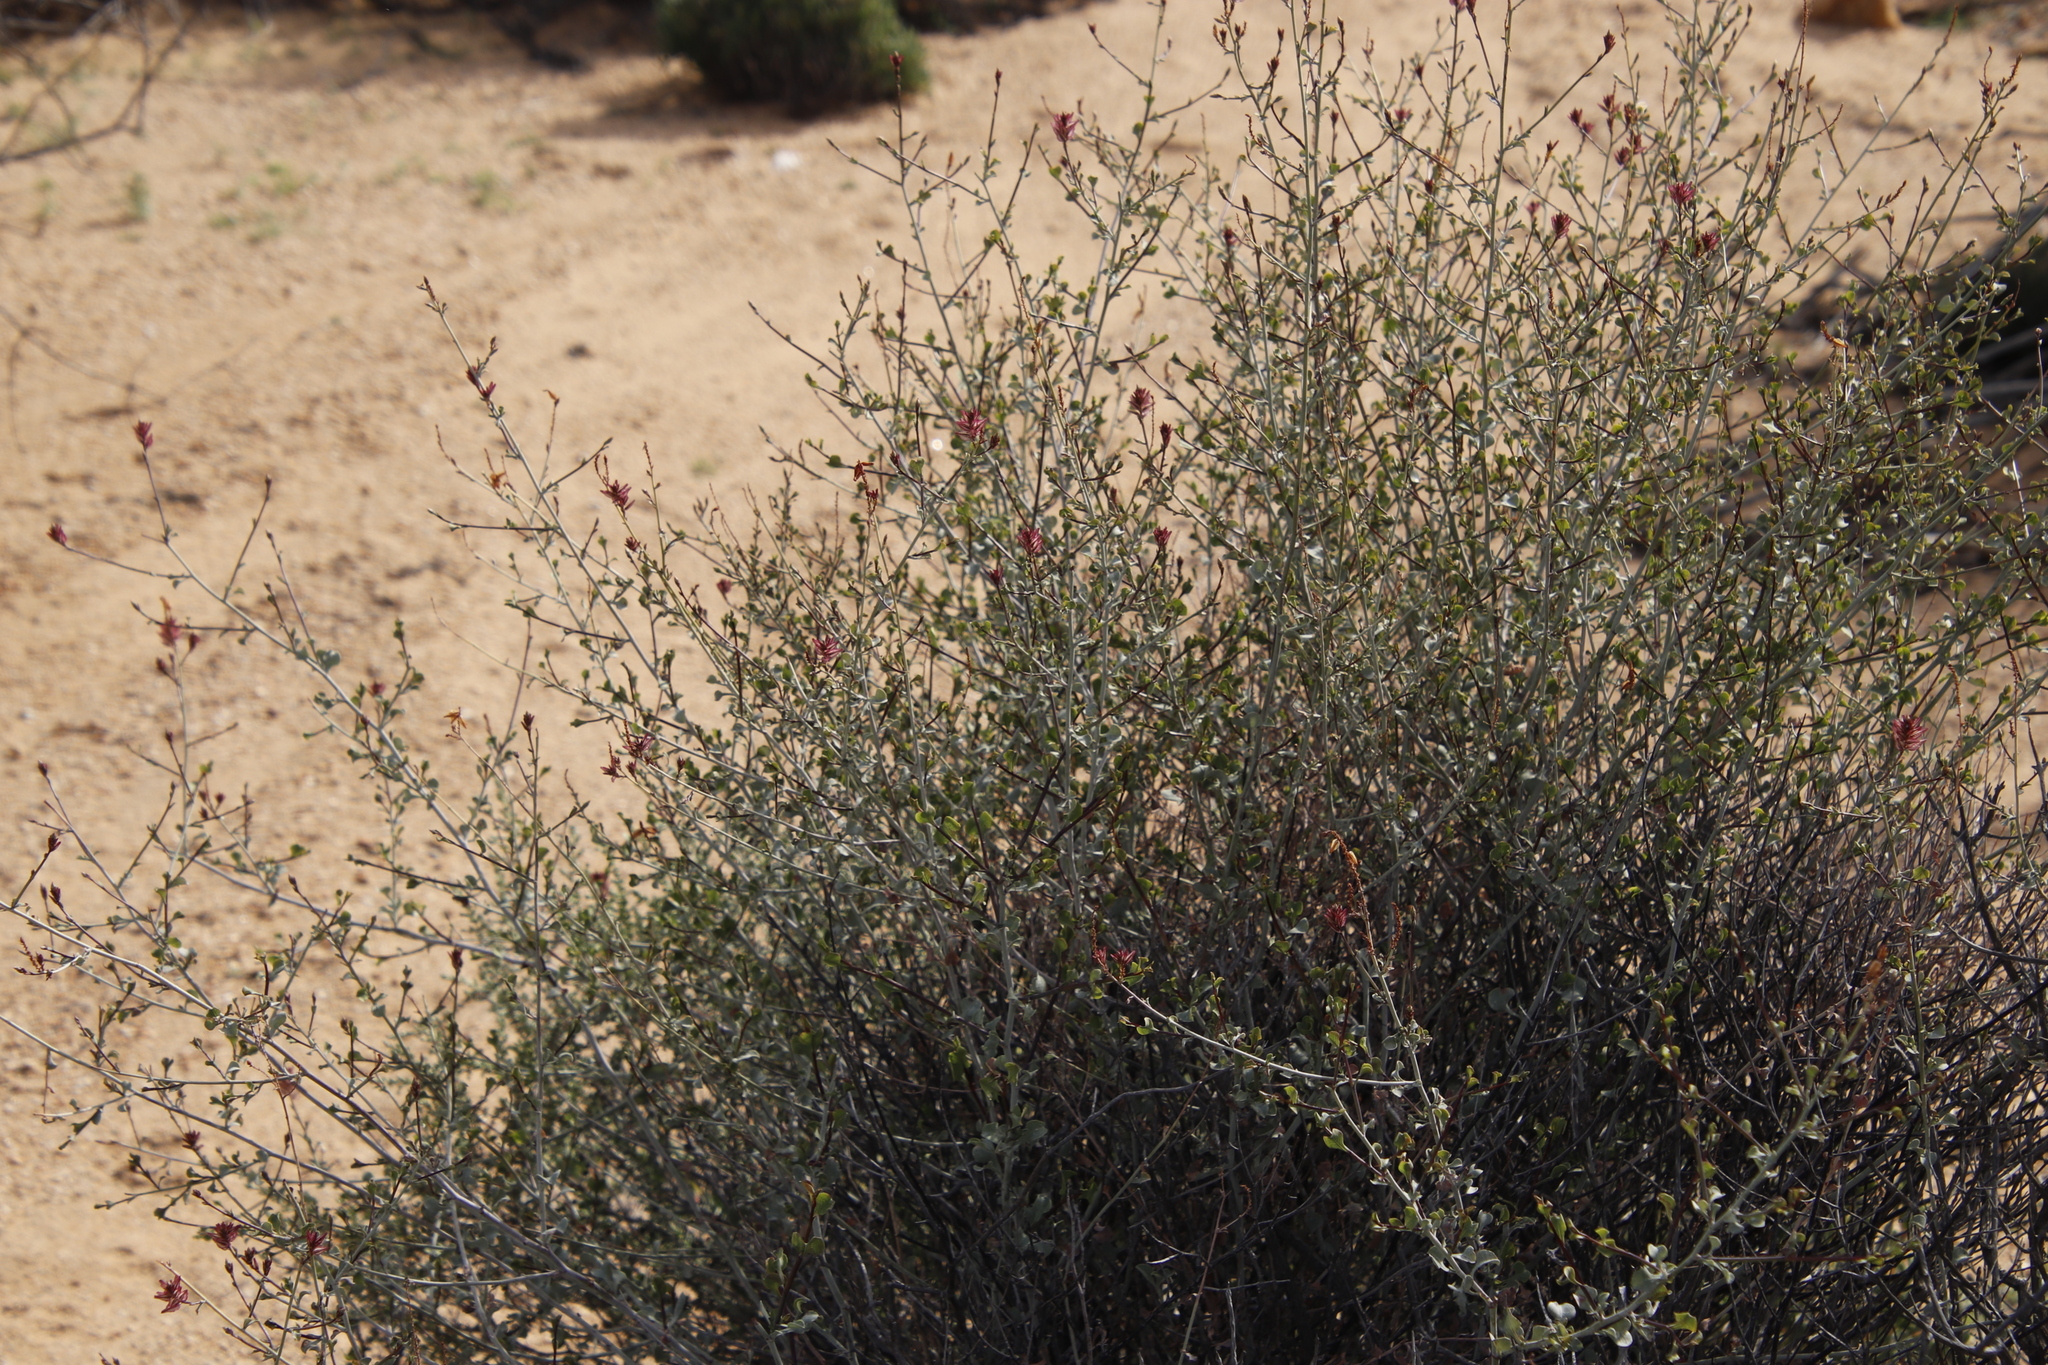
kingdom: Plantae
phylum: Tracheophyta
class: Magnoliopsida
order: Caryophyllales
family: Plumbaginaceae
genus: Dyerophytum
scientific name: Dyerophytum africanum
